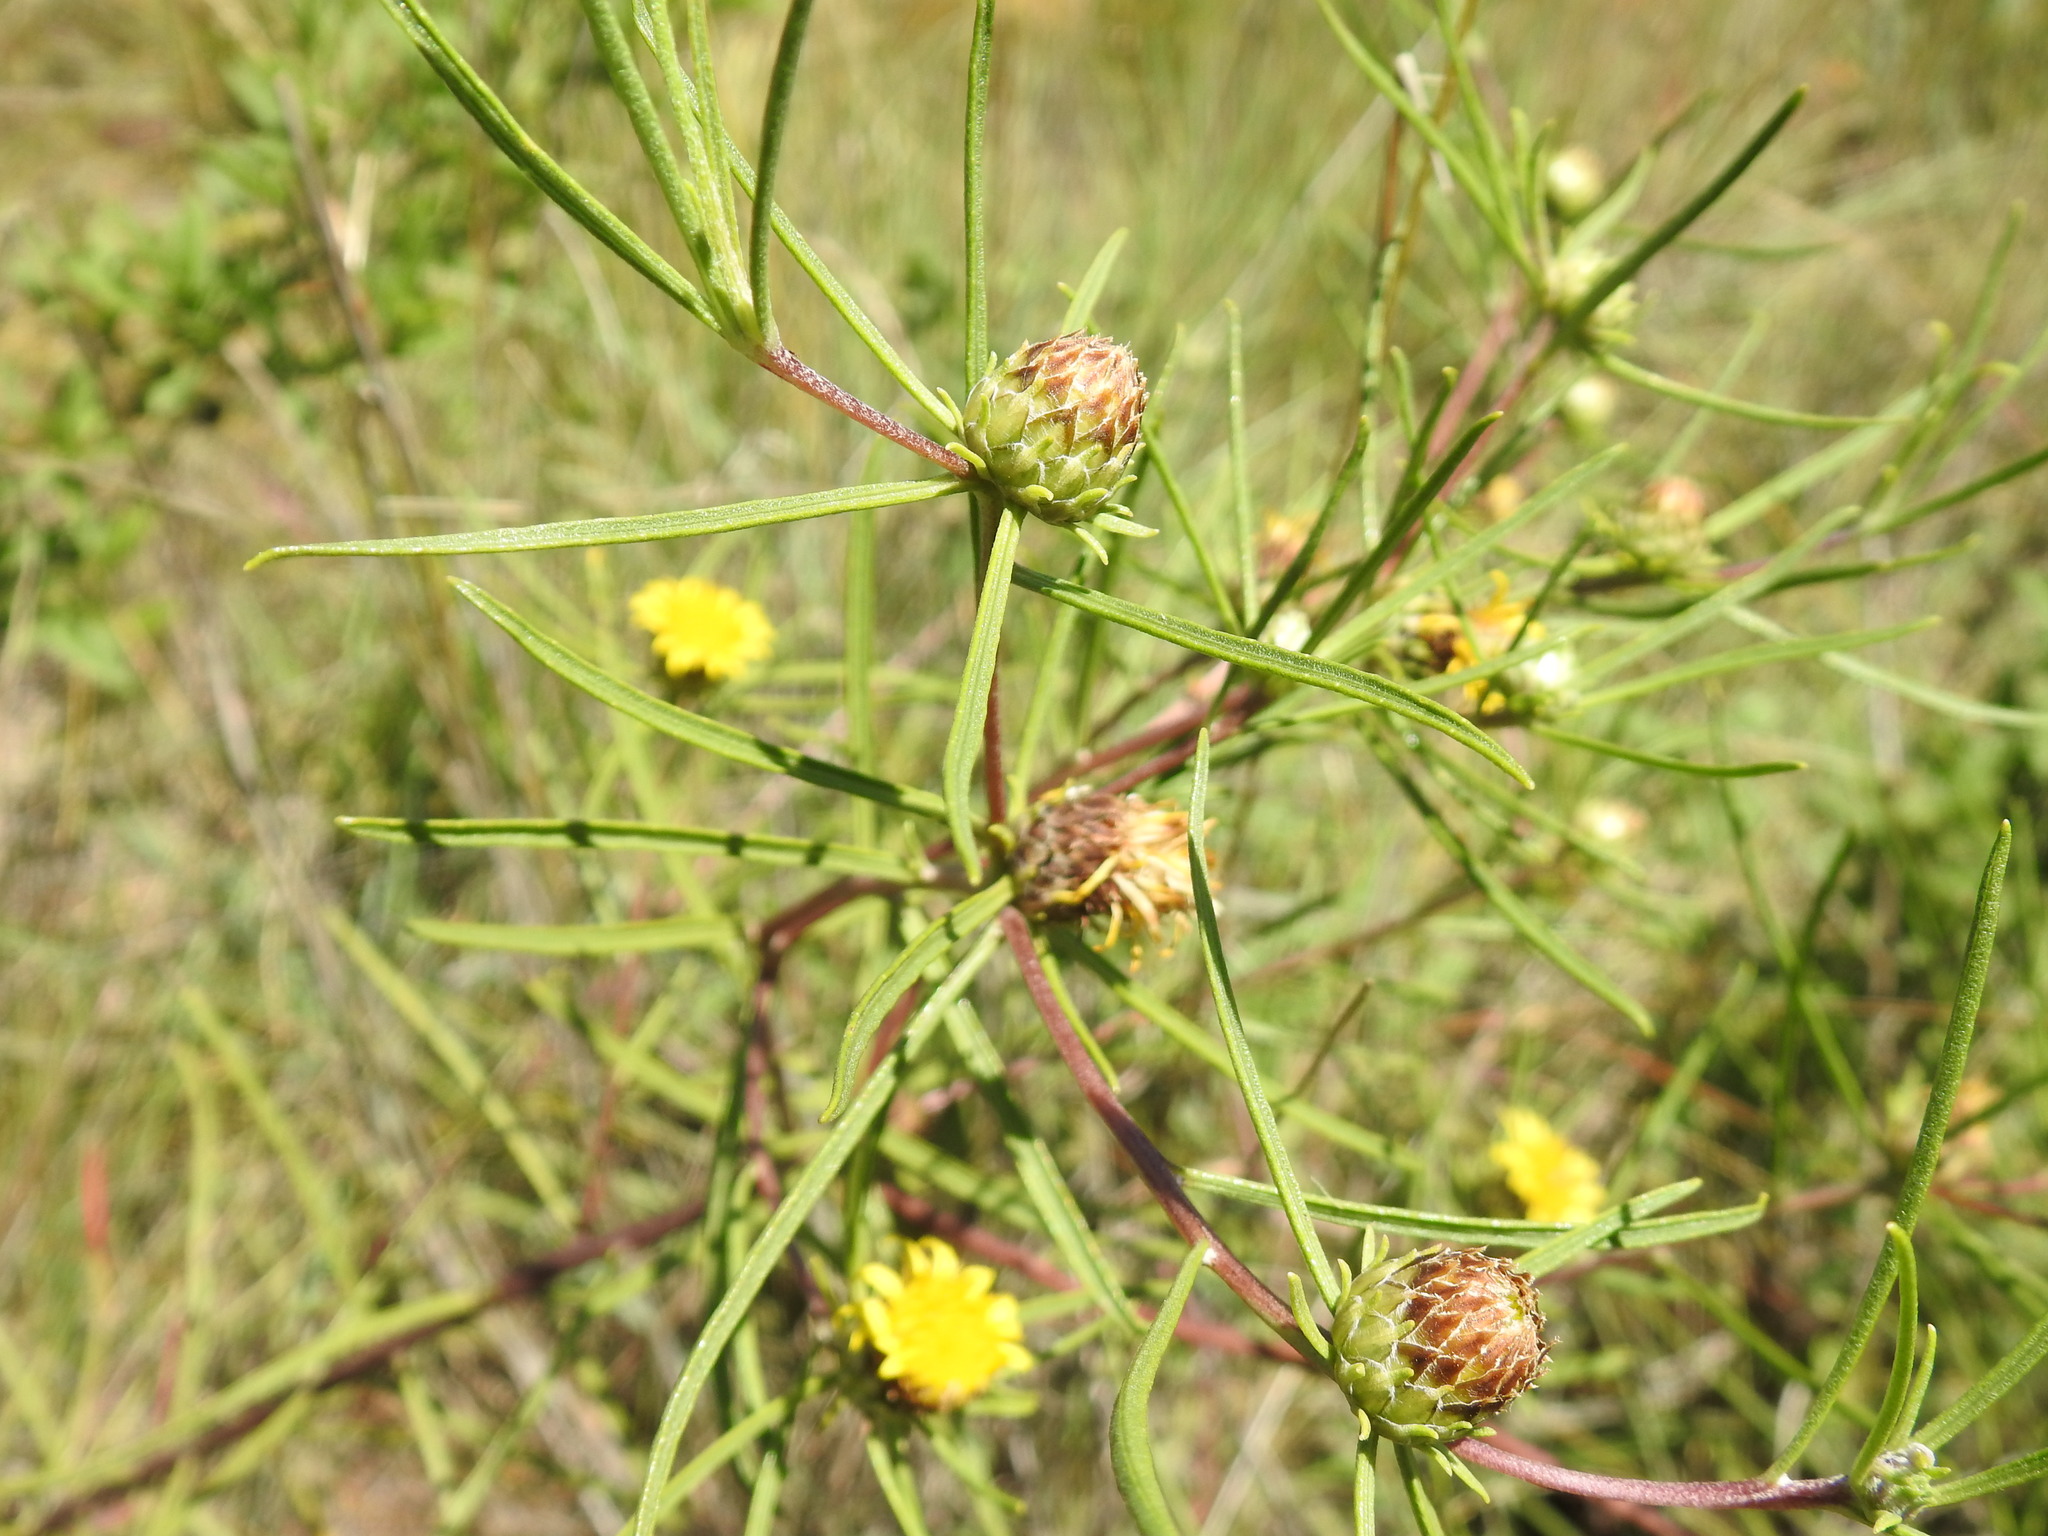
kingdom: Plantae
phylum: Tracheophyta
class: Magnoliopsida
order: Asterales
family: Asteraceae
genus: Geigeria
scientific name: Geigeria burkei
